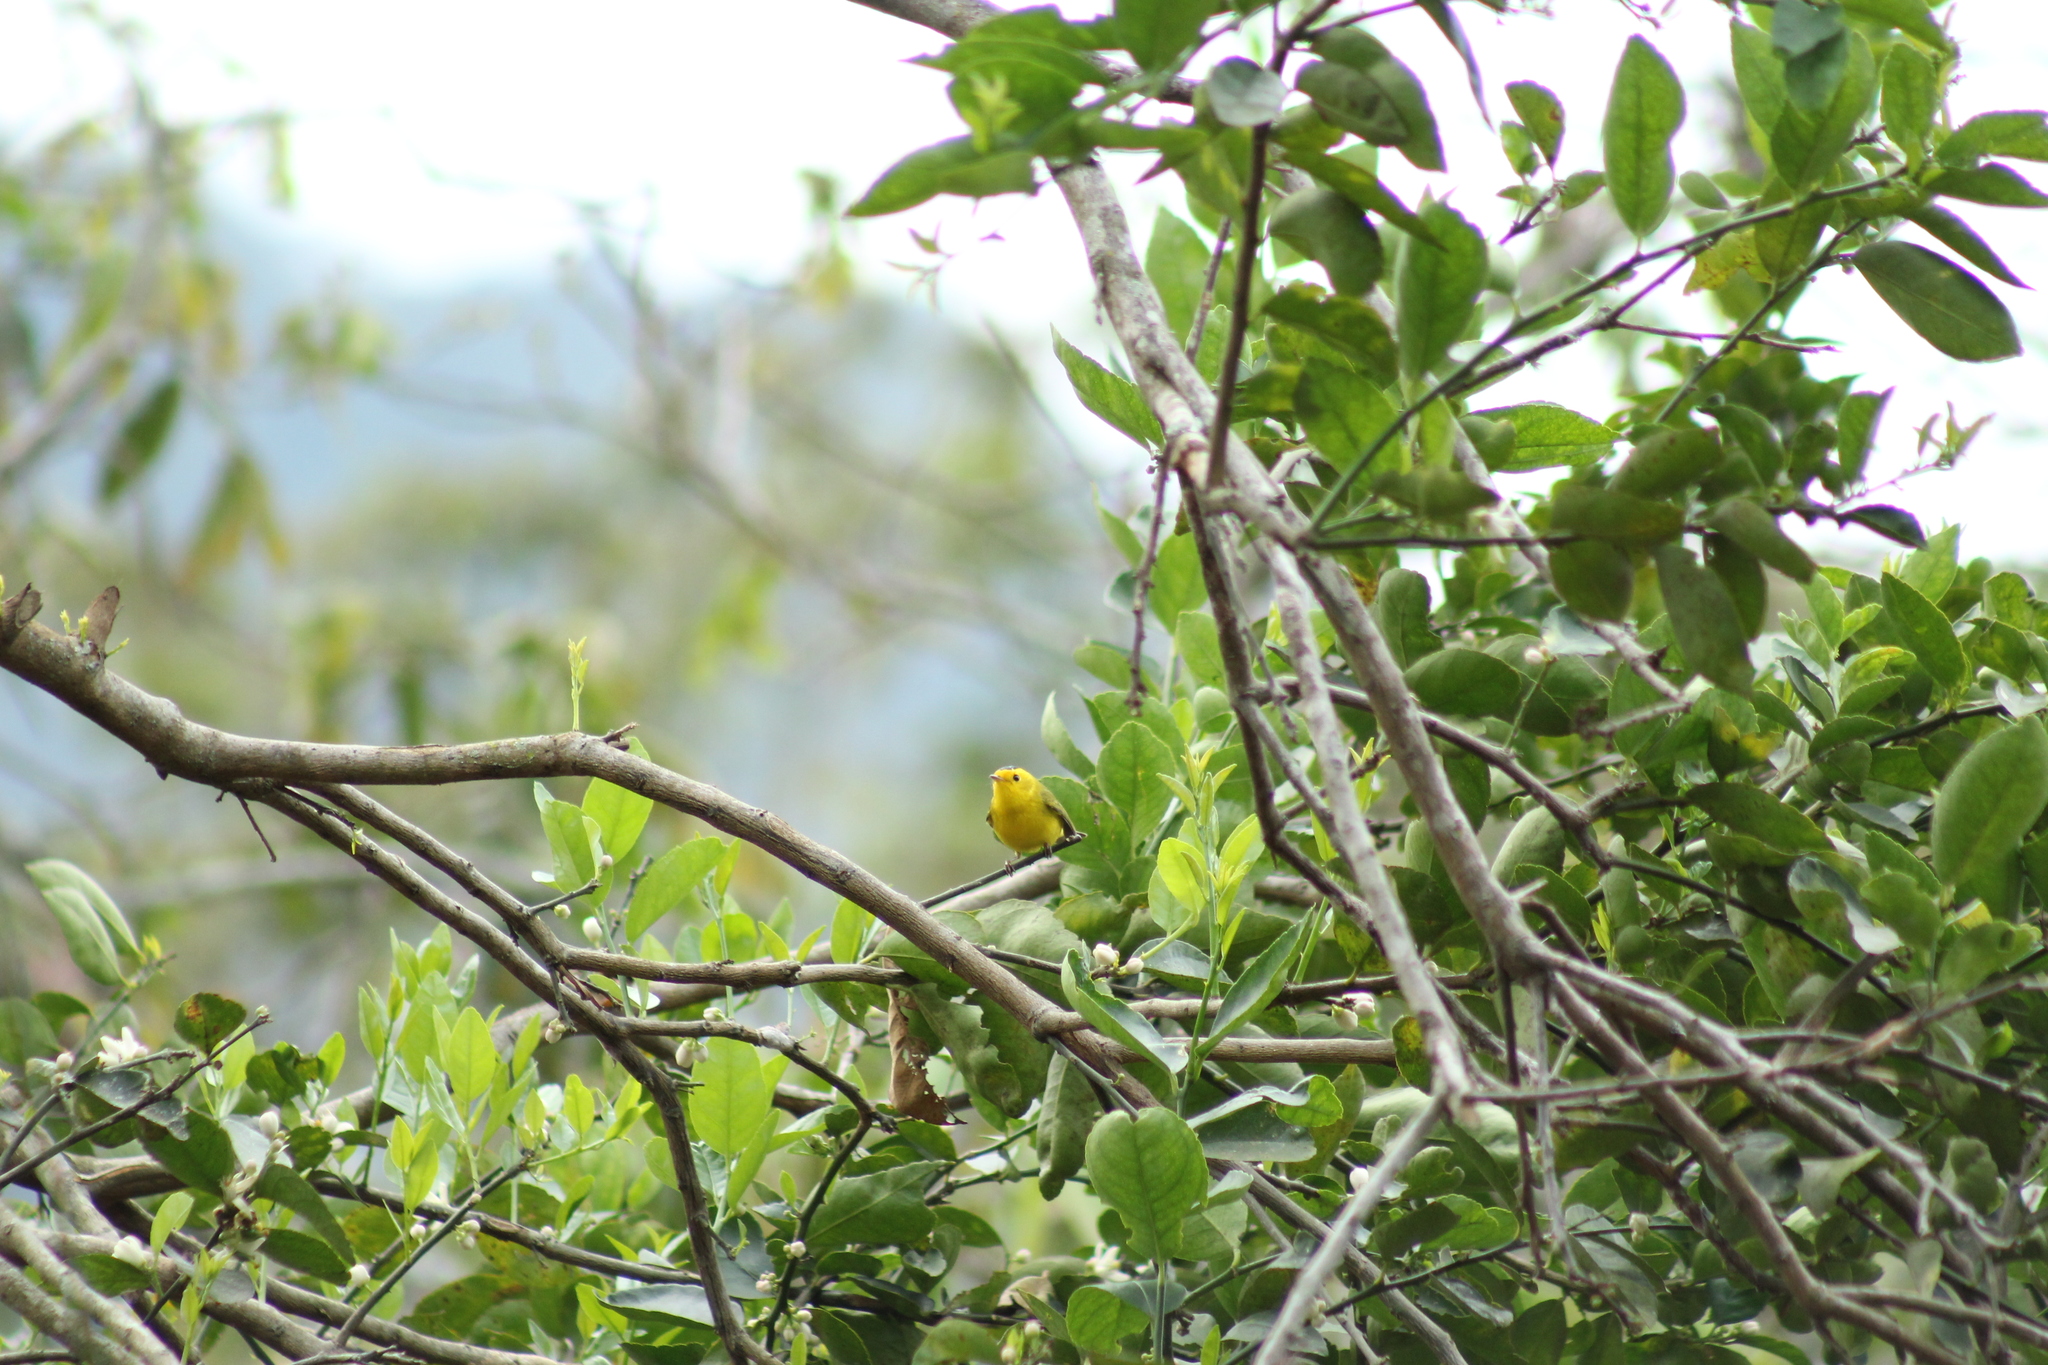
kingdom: Animalia
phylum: Chordata
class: Aves
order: Passeriformes
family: Parulidae
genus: Cardellina
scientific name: Cardellina pusilla
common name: Wilson's warbler
